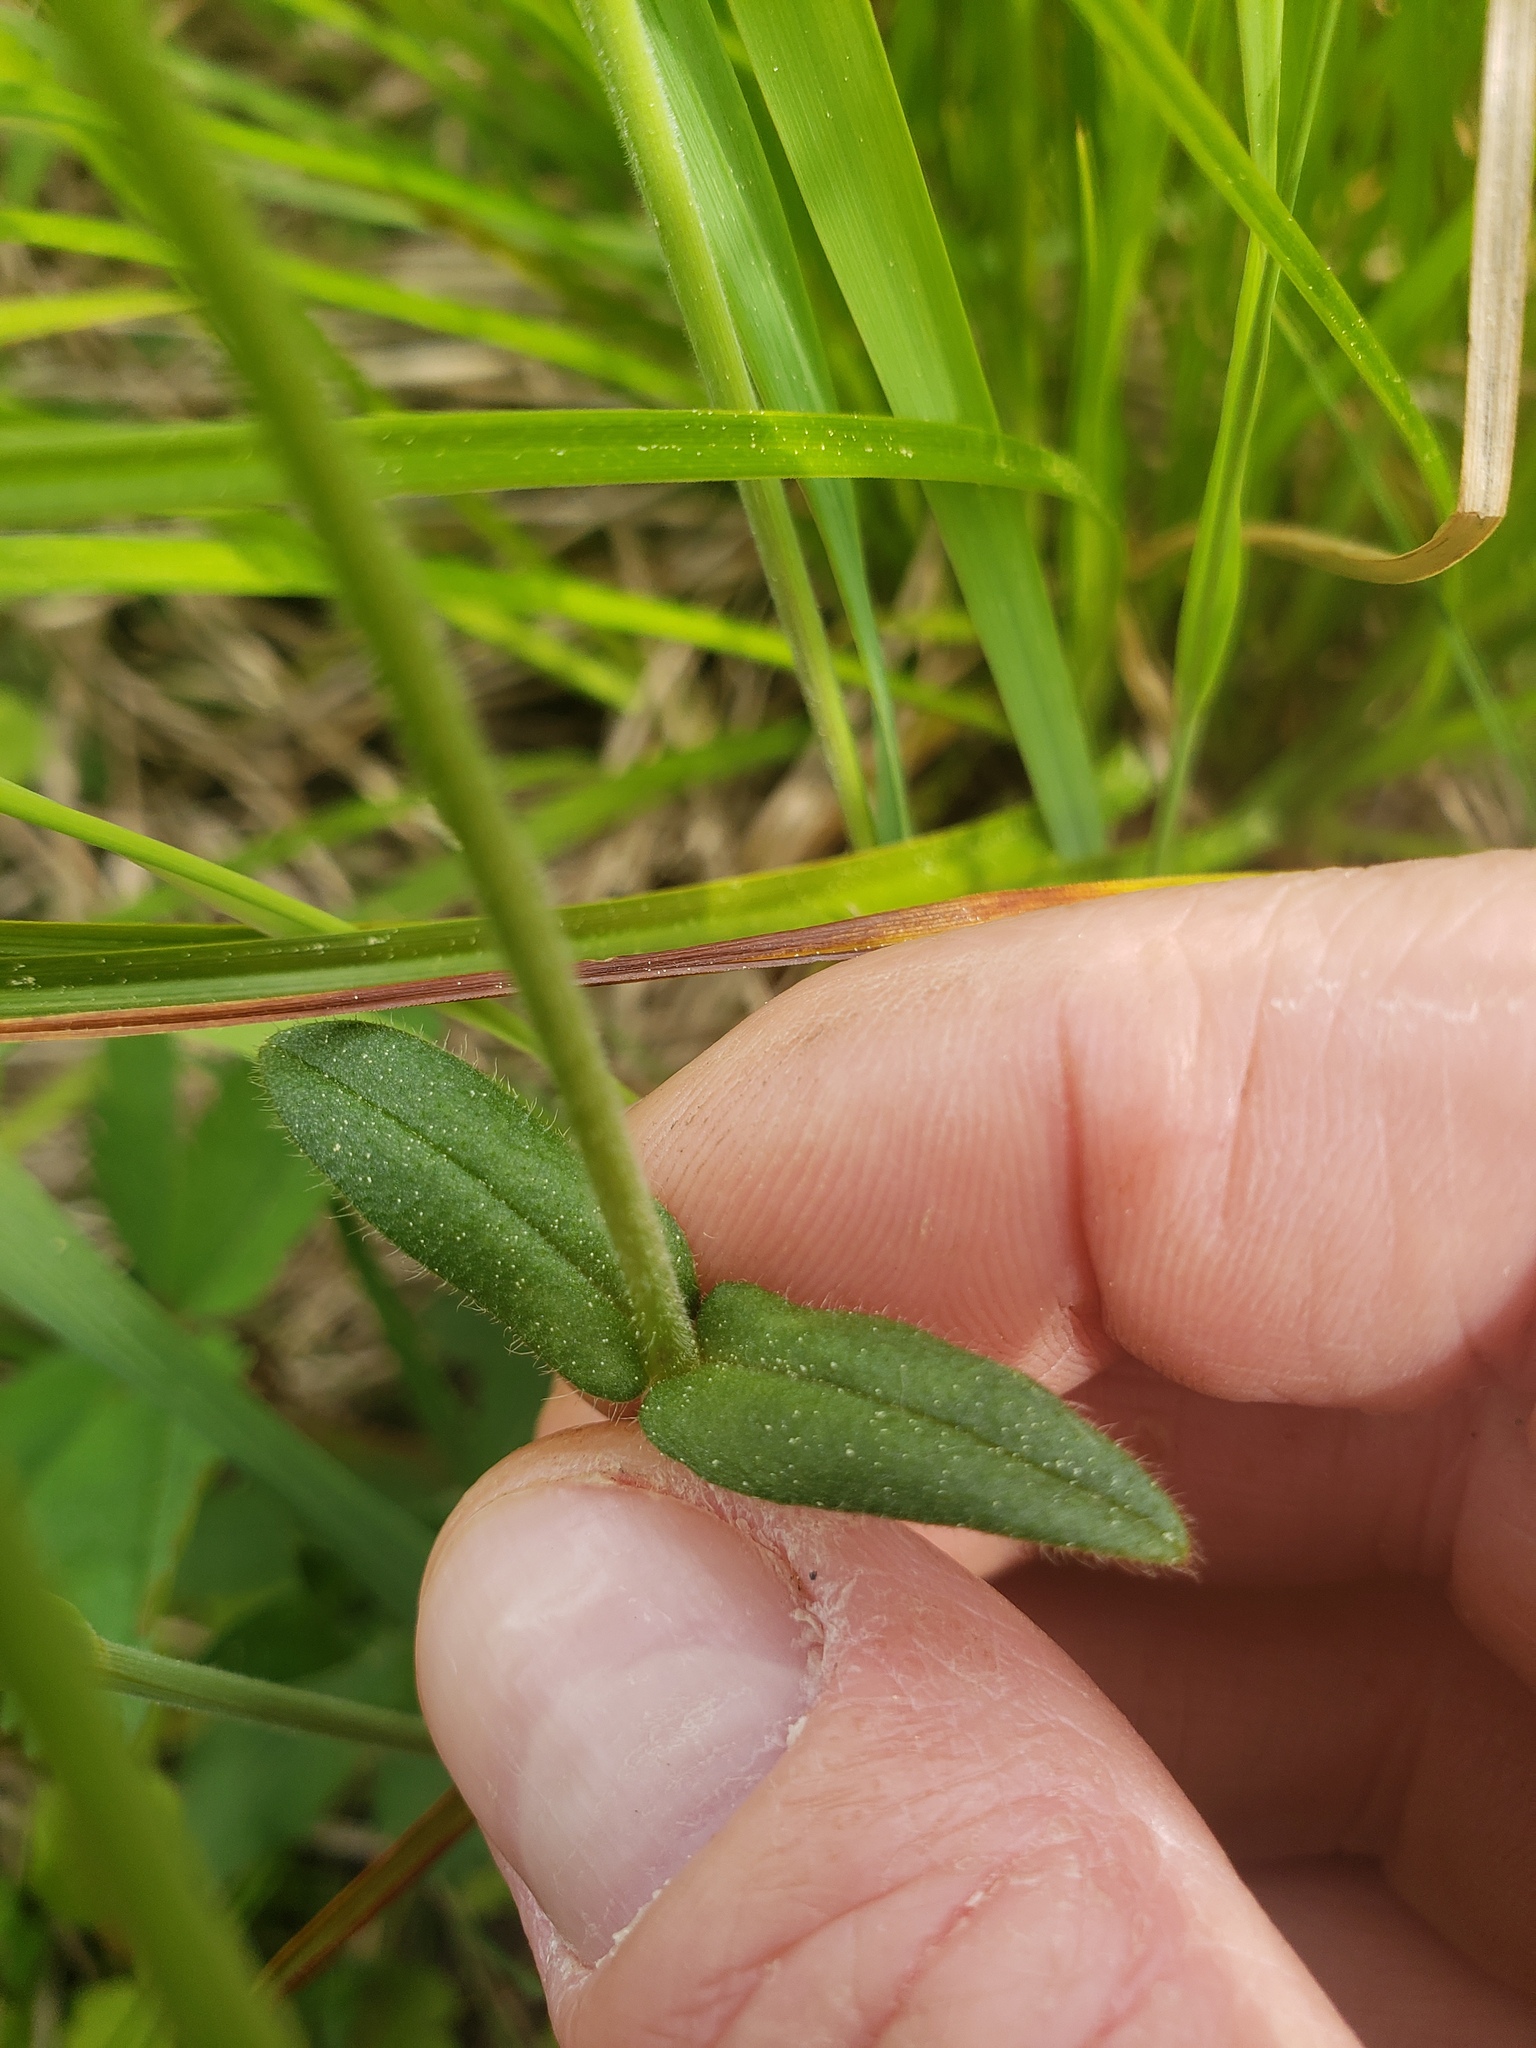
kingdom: Plantae
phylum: Tracheophyta
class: Magnoliopsida
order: Caryophyllales
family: Caryophyllaceae
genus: Cerastium
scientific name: Cerastium fontanum
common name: Common mouse-ear
